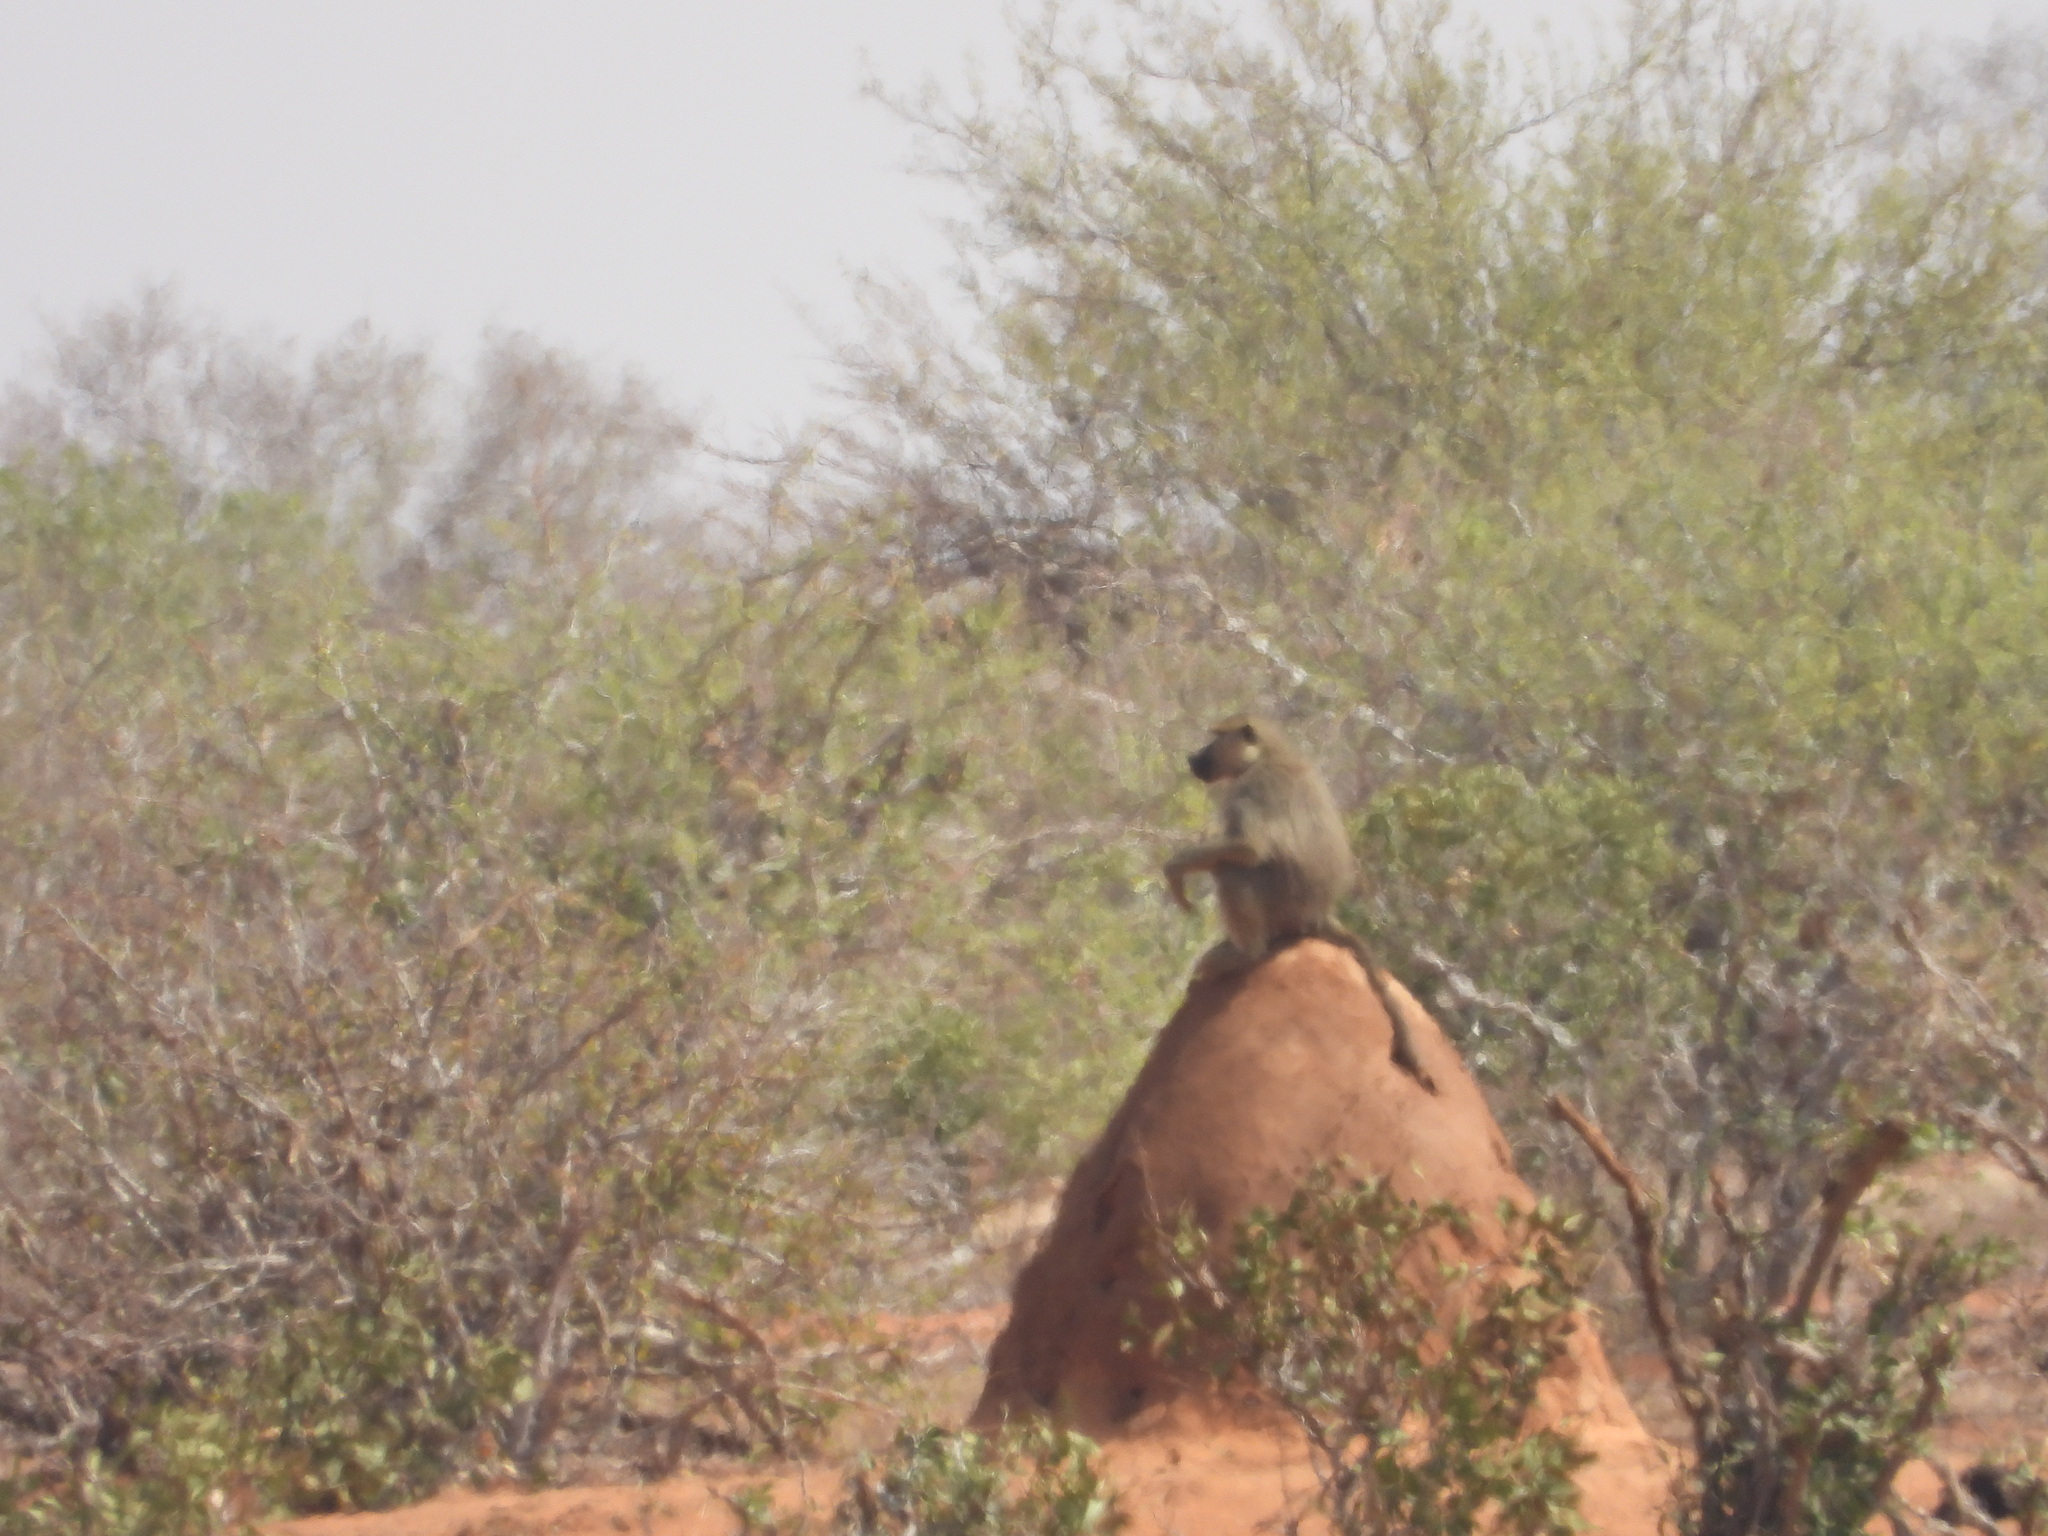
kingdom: Animalia
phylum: Chordata
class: Mammalia
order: Primates
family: Cercopithecidae
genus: Papio
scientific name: Papio cynocephalus
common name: Yellow baboon
